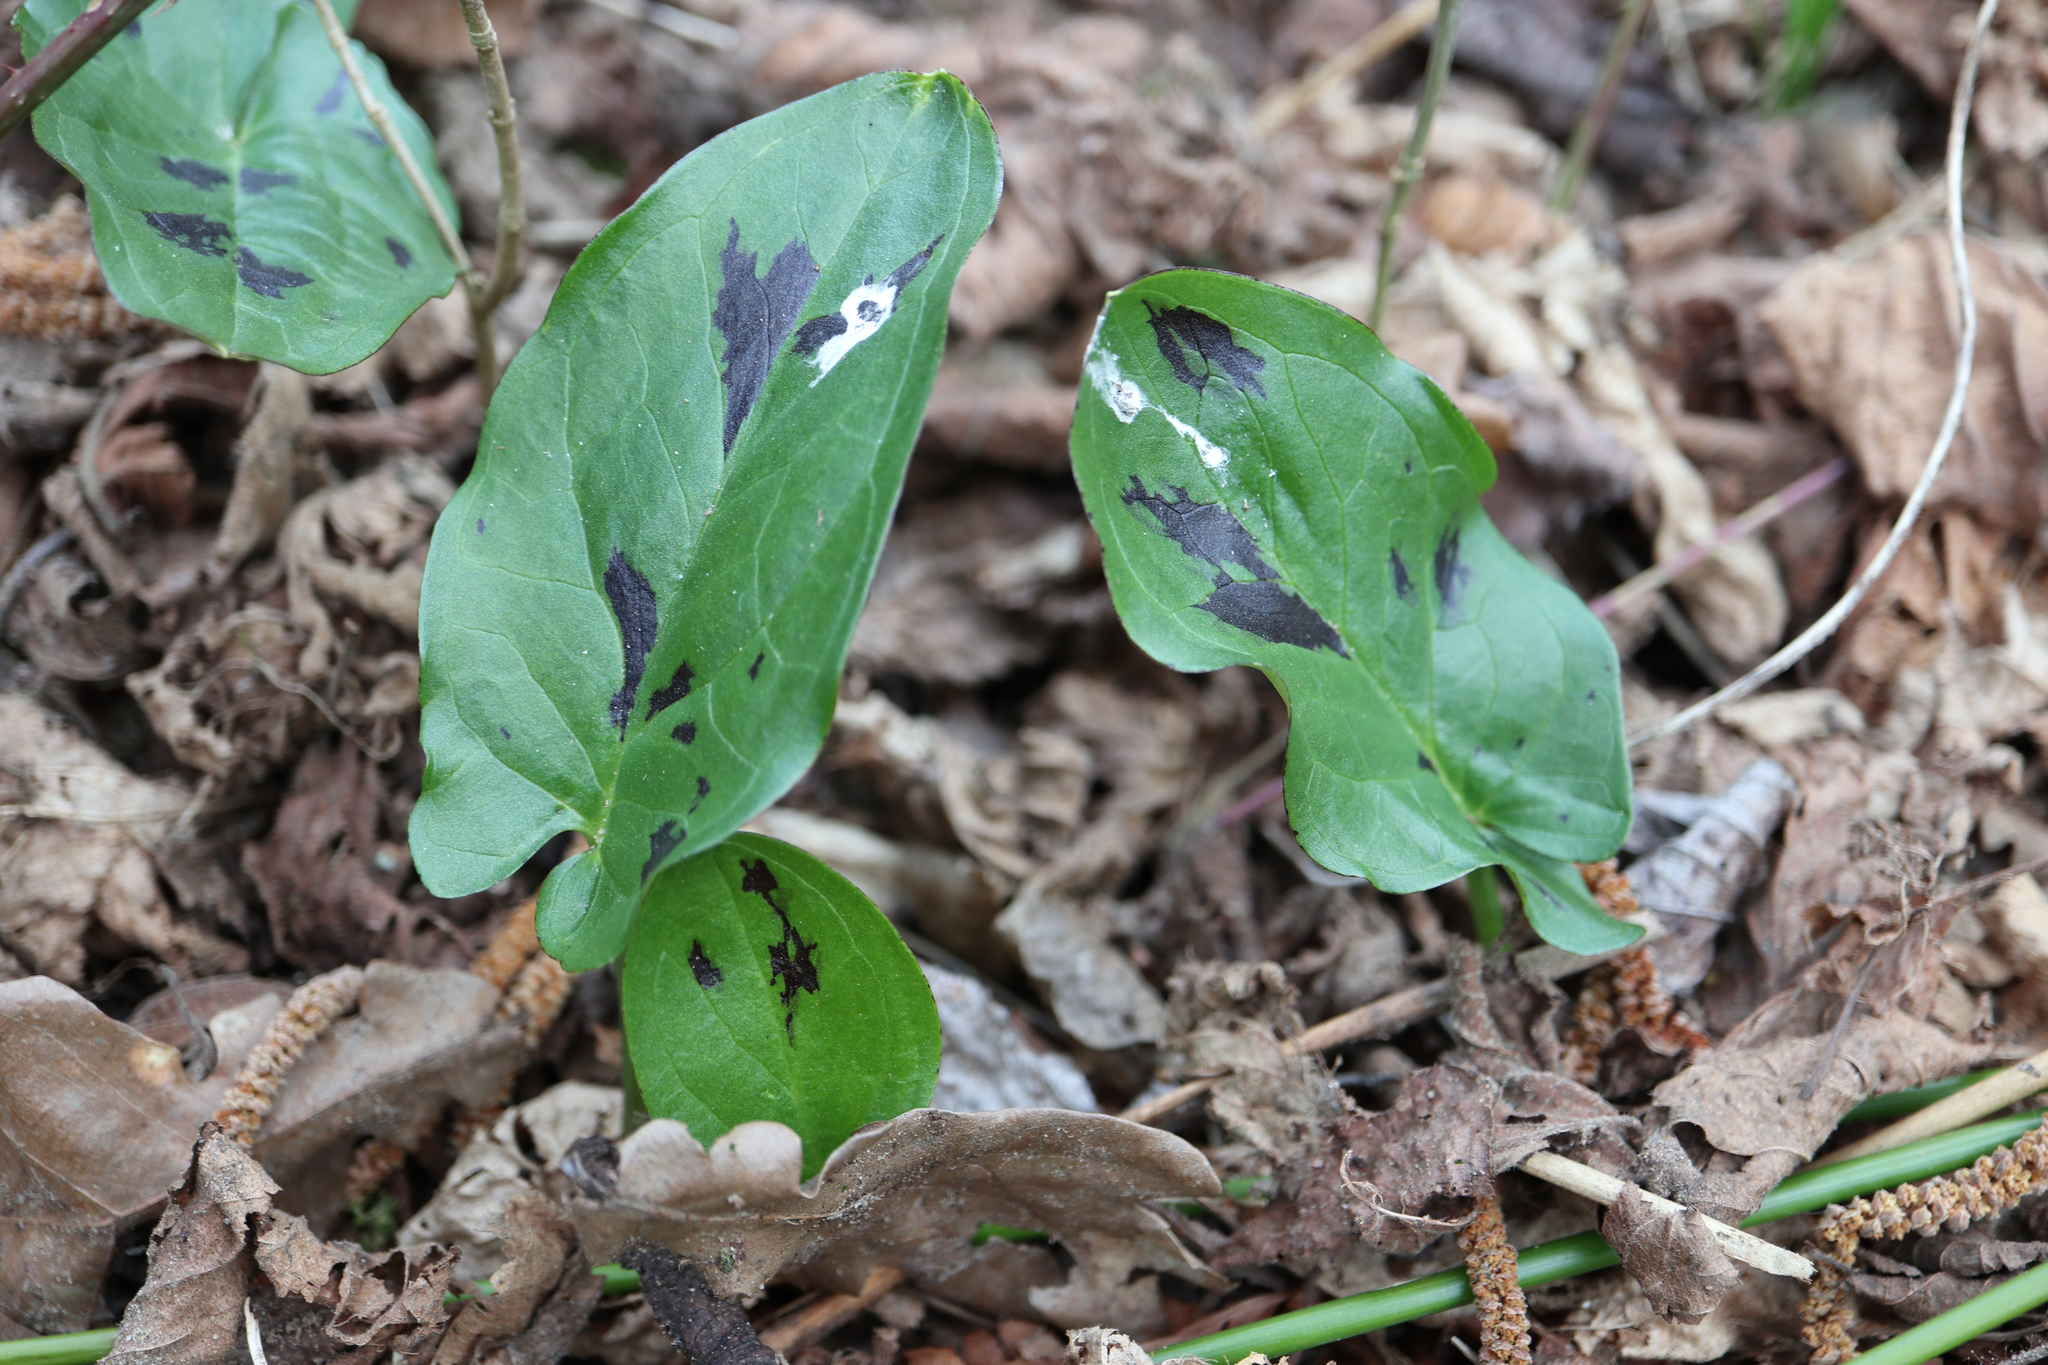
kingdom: Plantae
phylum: Tracheophyta
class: Liliopsida
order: Alismatales
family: Araceae
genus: Arum
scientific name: Arum maculatum
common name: Lords-and-ladies
